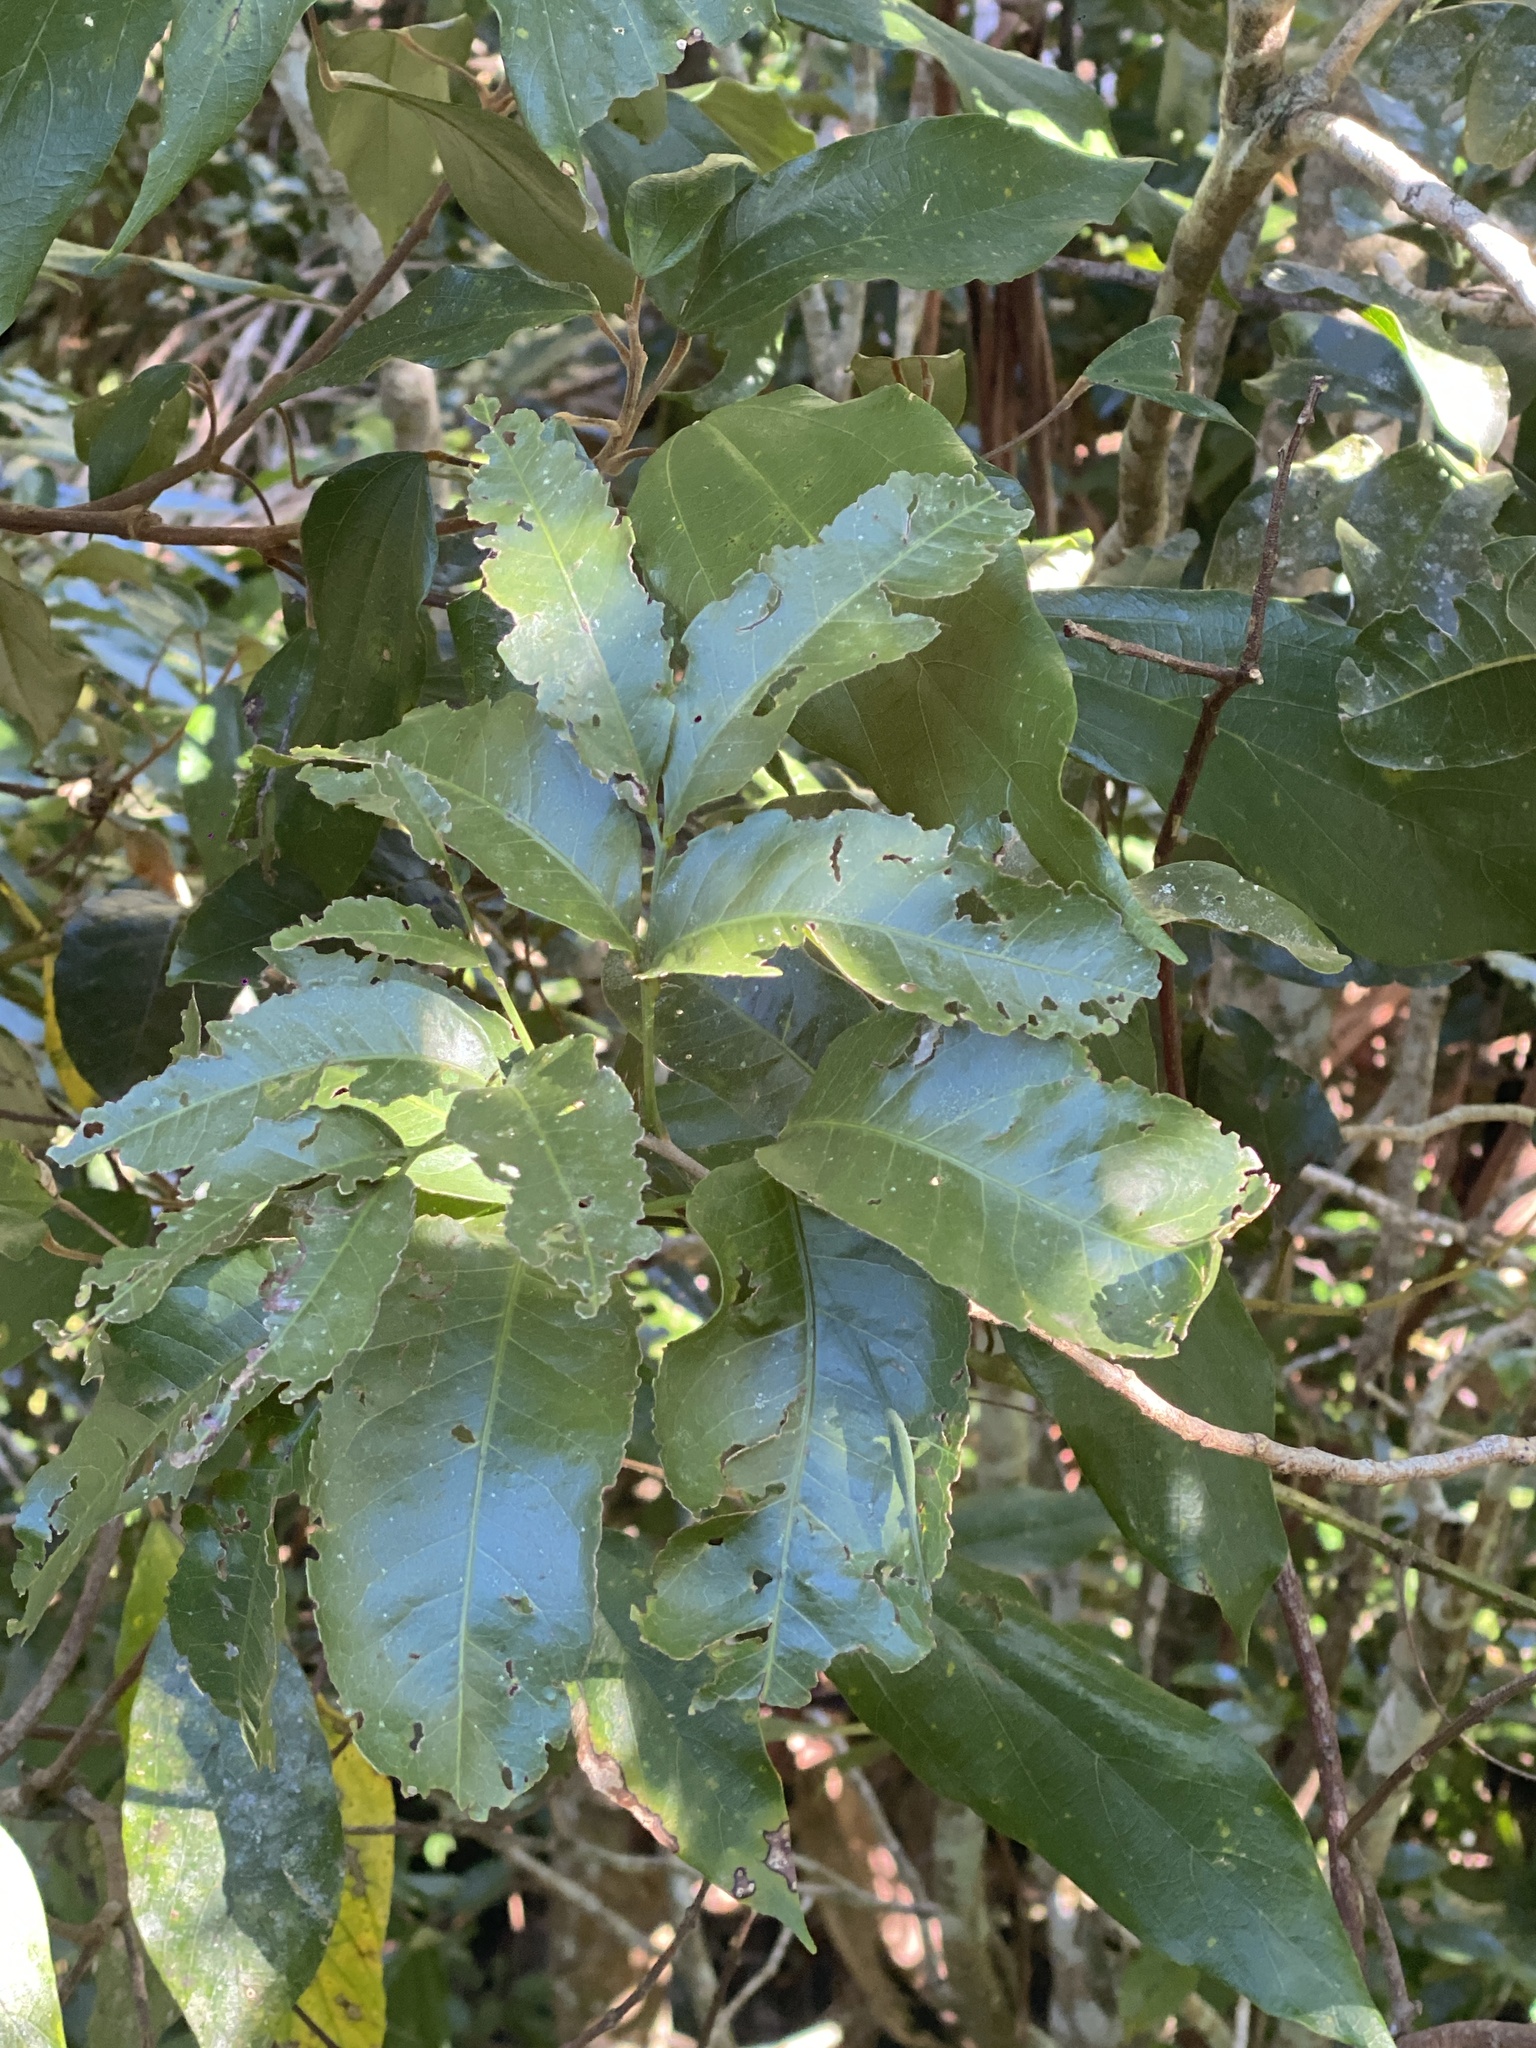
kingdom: Plantae
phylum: Tracheophyta
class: Magnoliopsida
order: Sapindales
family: Sapindaceae
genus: Atalaya
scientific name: Atalaya multiflora
